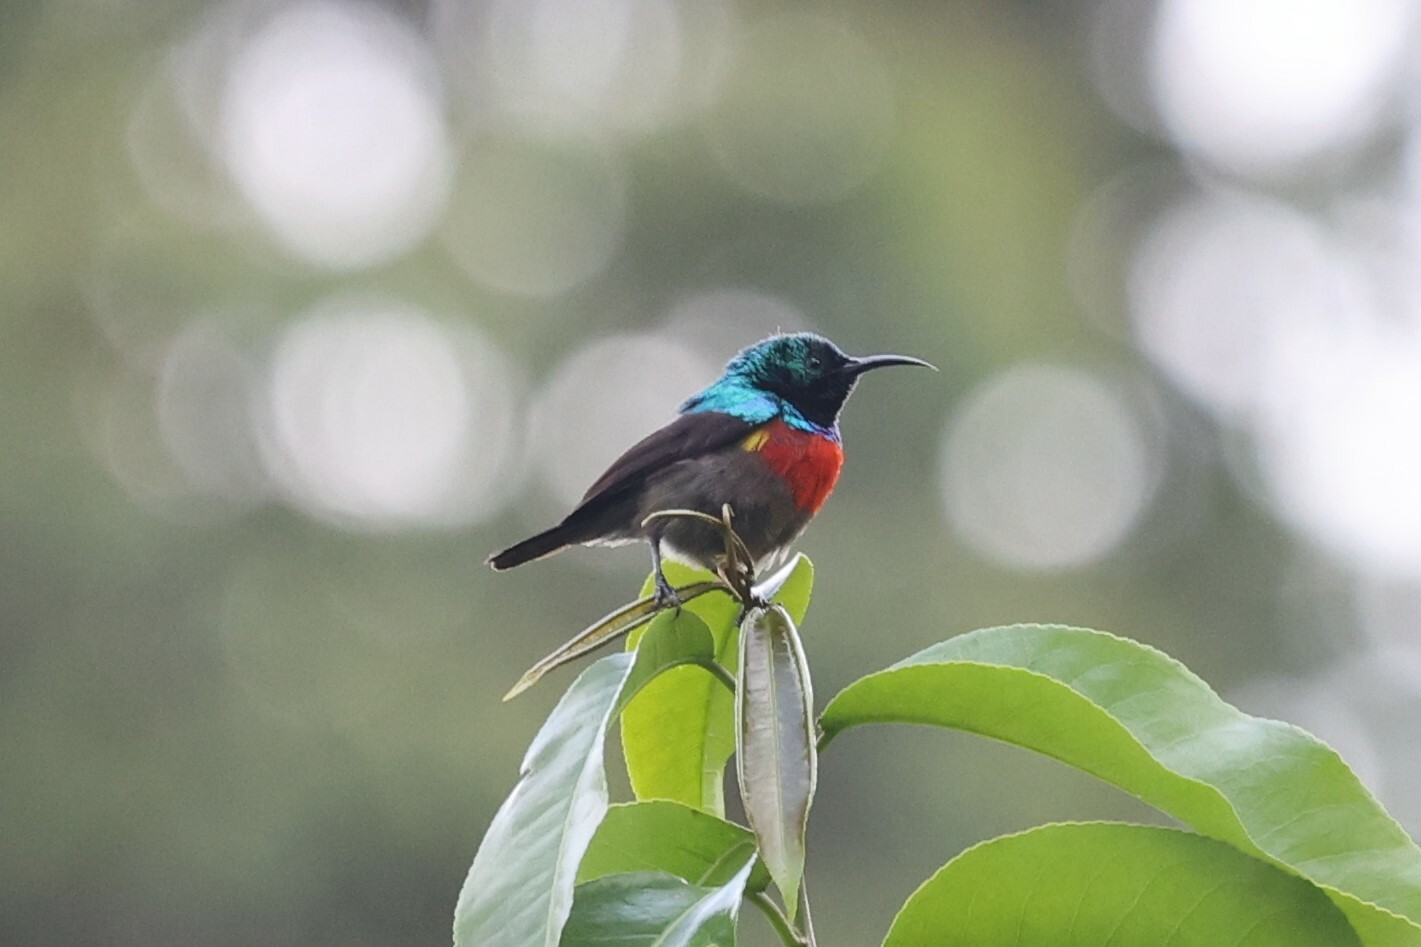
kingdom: Animalia
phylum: Chordata
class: Aves
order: Passeriformes
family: Nectariniidae
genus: Cinnyris
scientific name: Cinnyris chloropygius
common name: Olive-bellied sunbird
